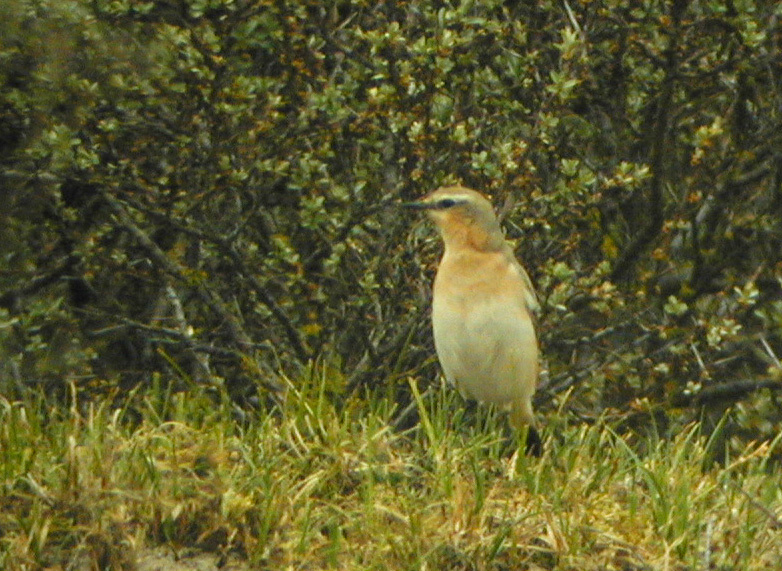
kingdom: Animalia
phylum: Chordata
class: Aves
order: Passeriformes
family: Muscicapidae
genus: Oenanthe
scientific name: Oenanthe oenanthe
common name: Northern wheatear
